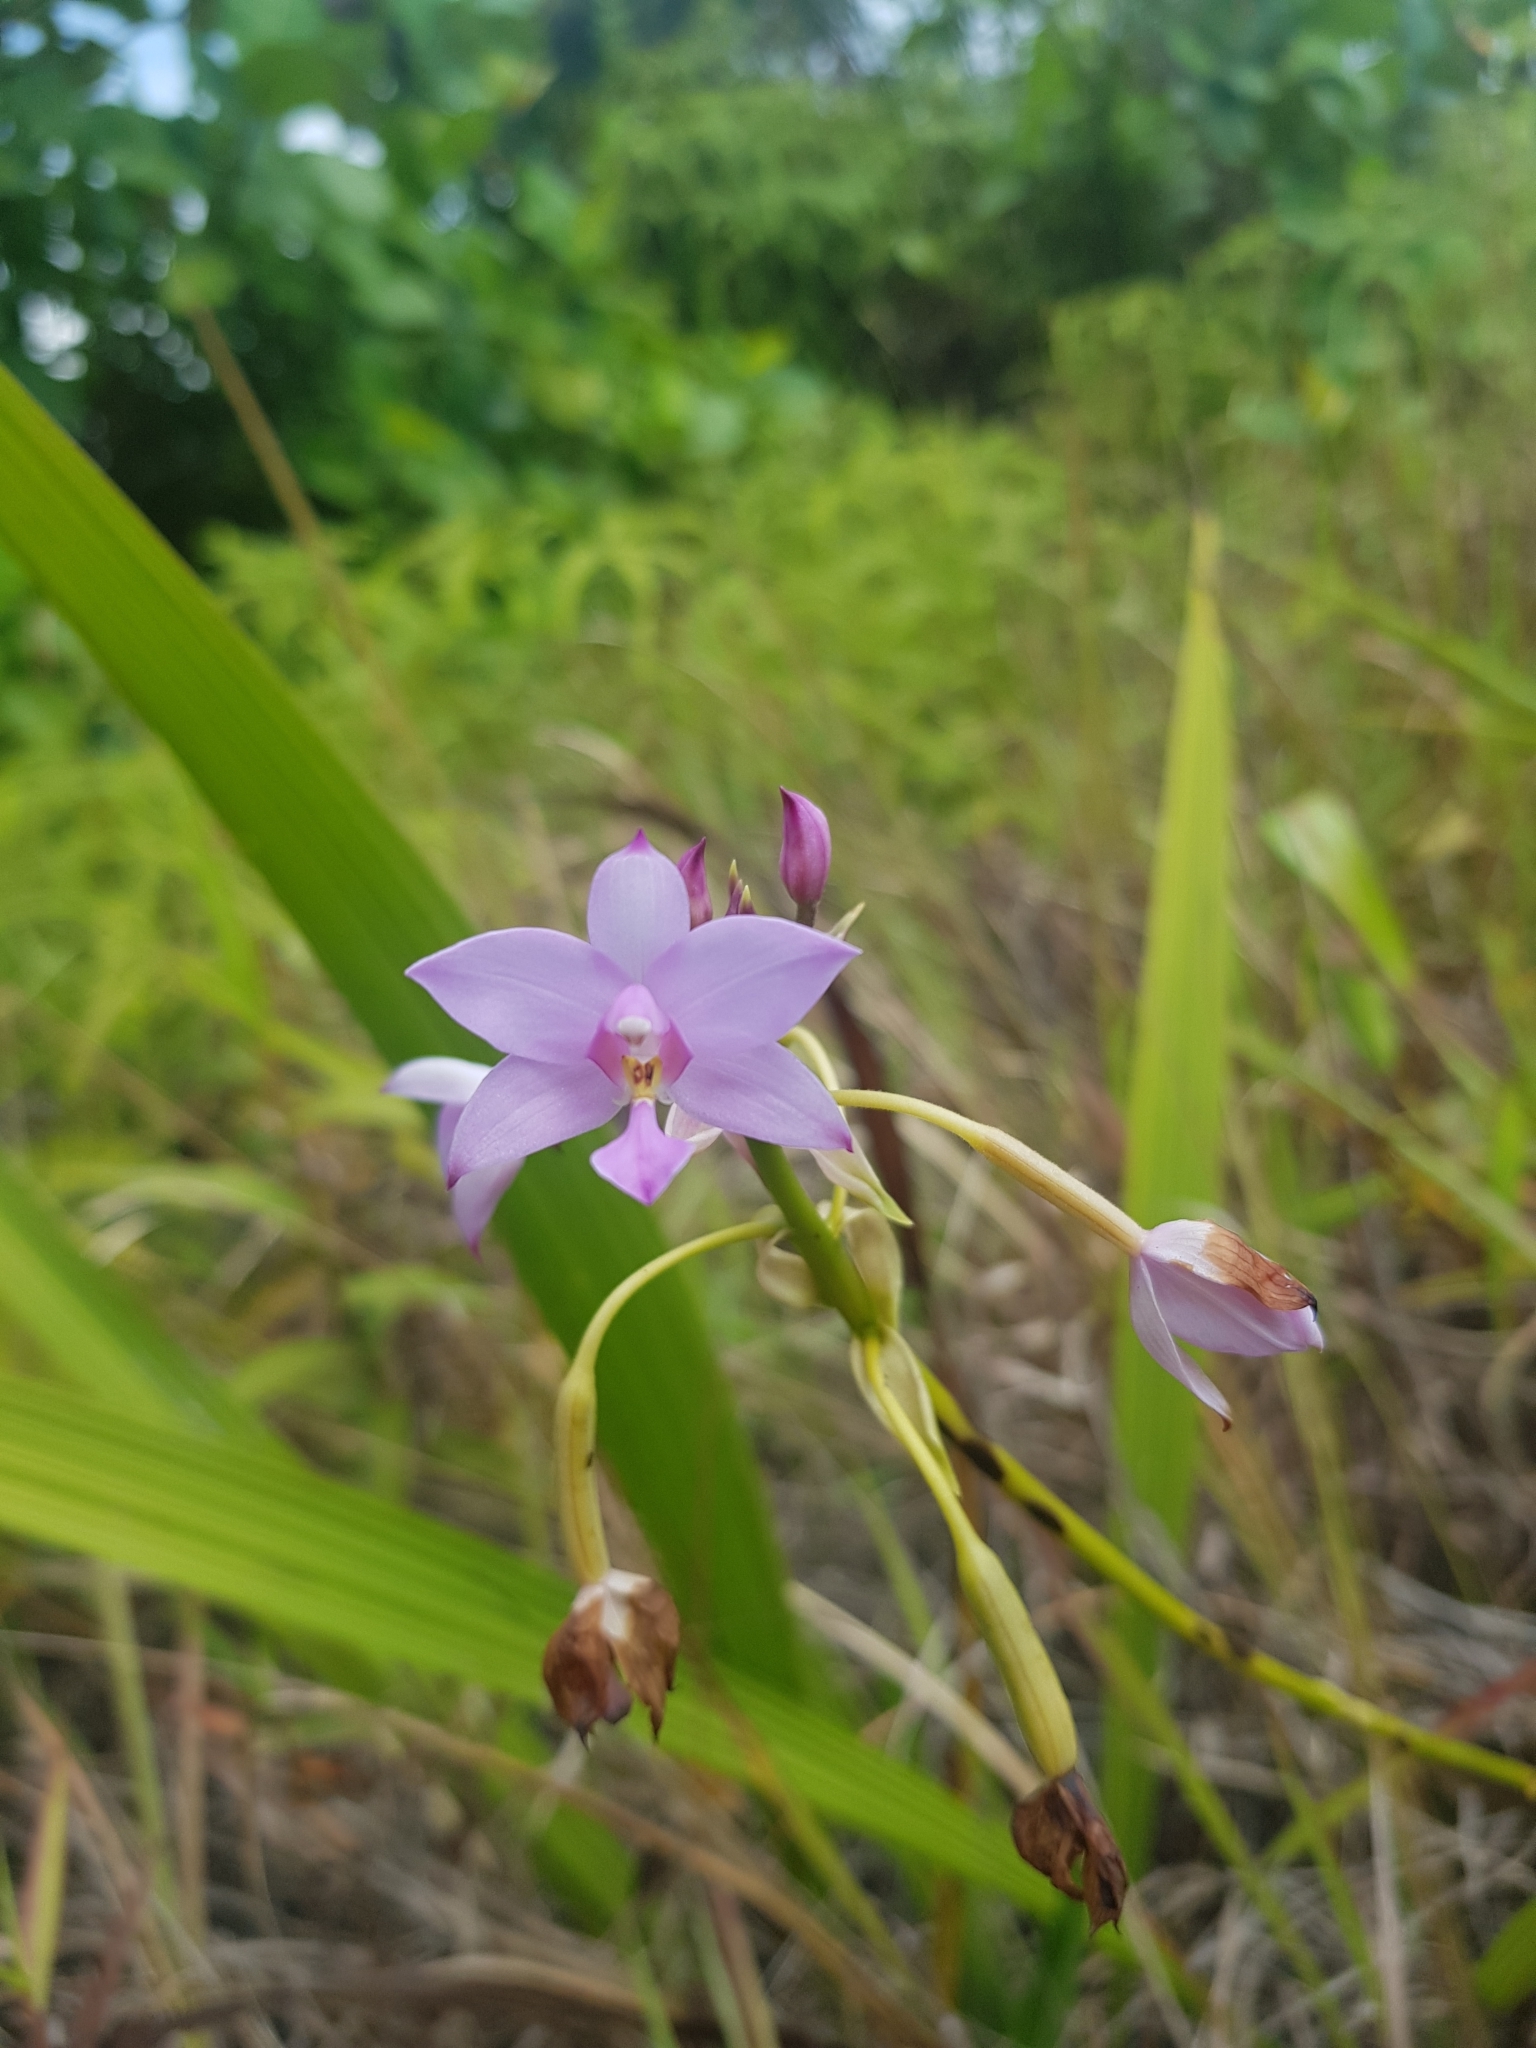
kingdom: Plantae
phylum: Tracheophyta
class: Liliopsida
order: Asparagales
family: Orchidaceae
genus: Spathoglottis
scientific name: Spathoglottis plicata
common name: Philippine ground orchid
